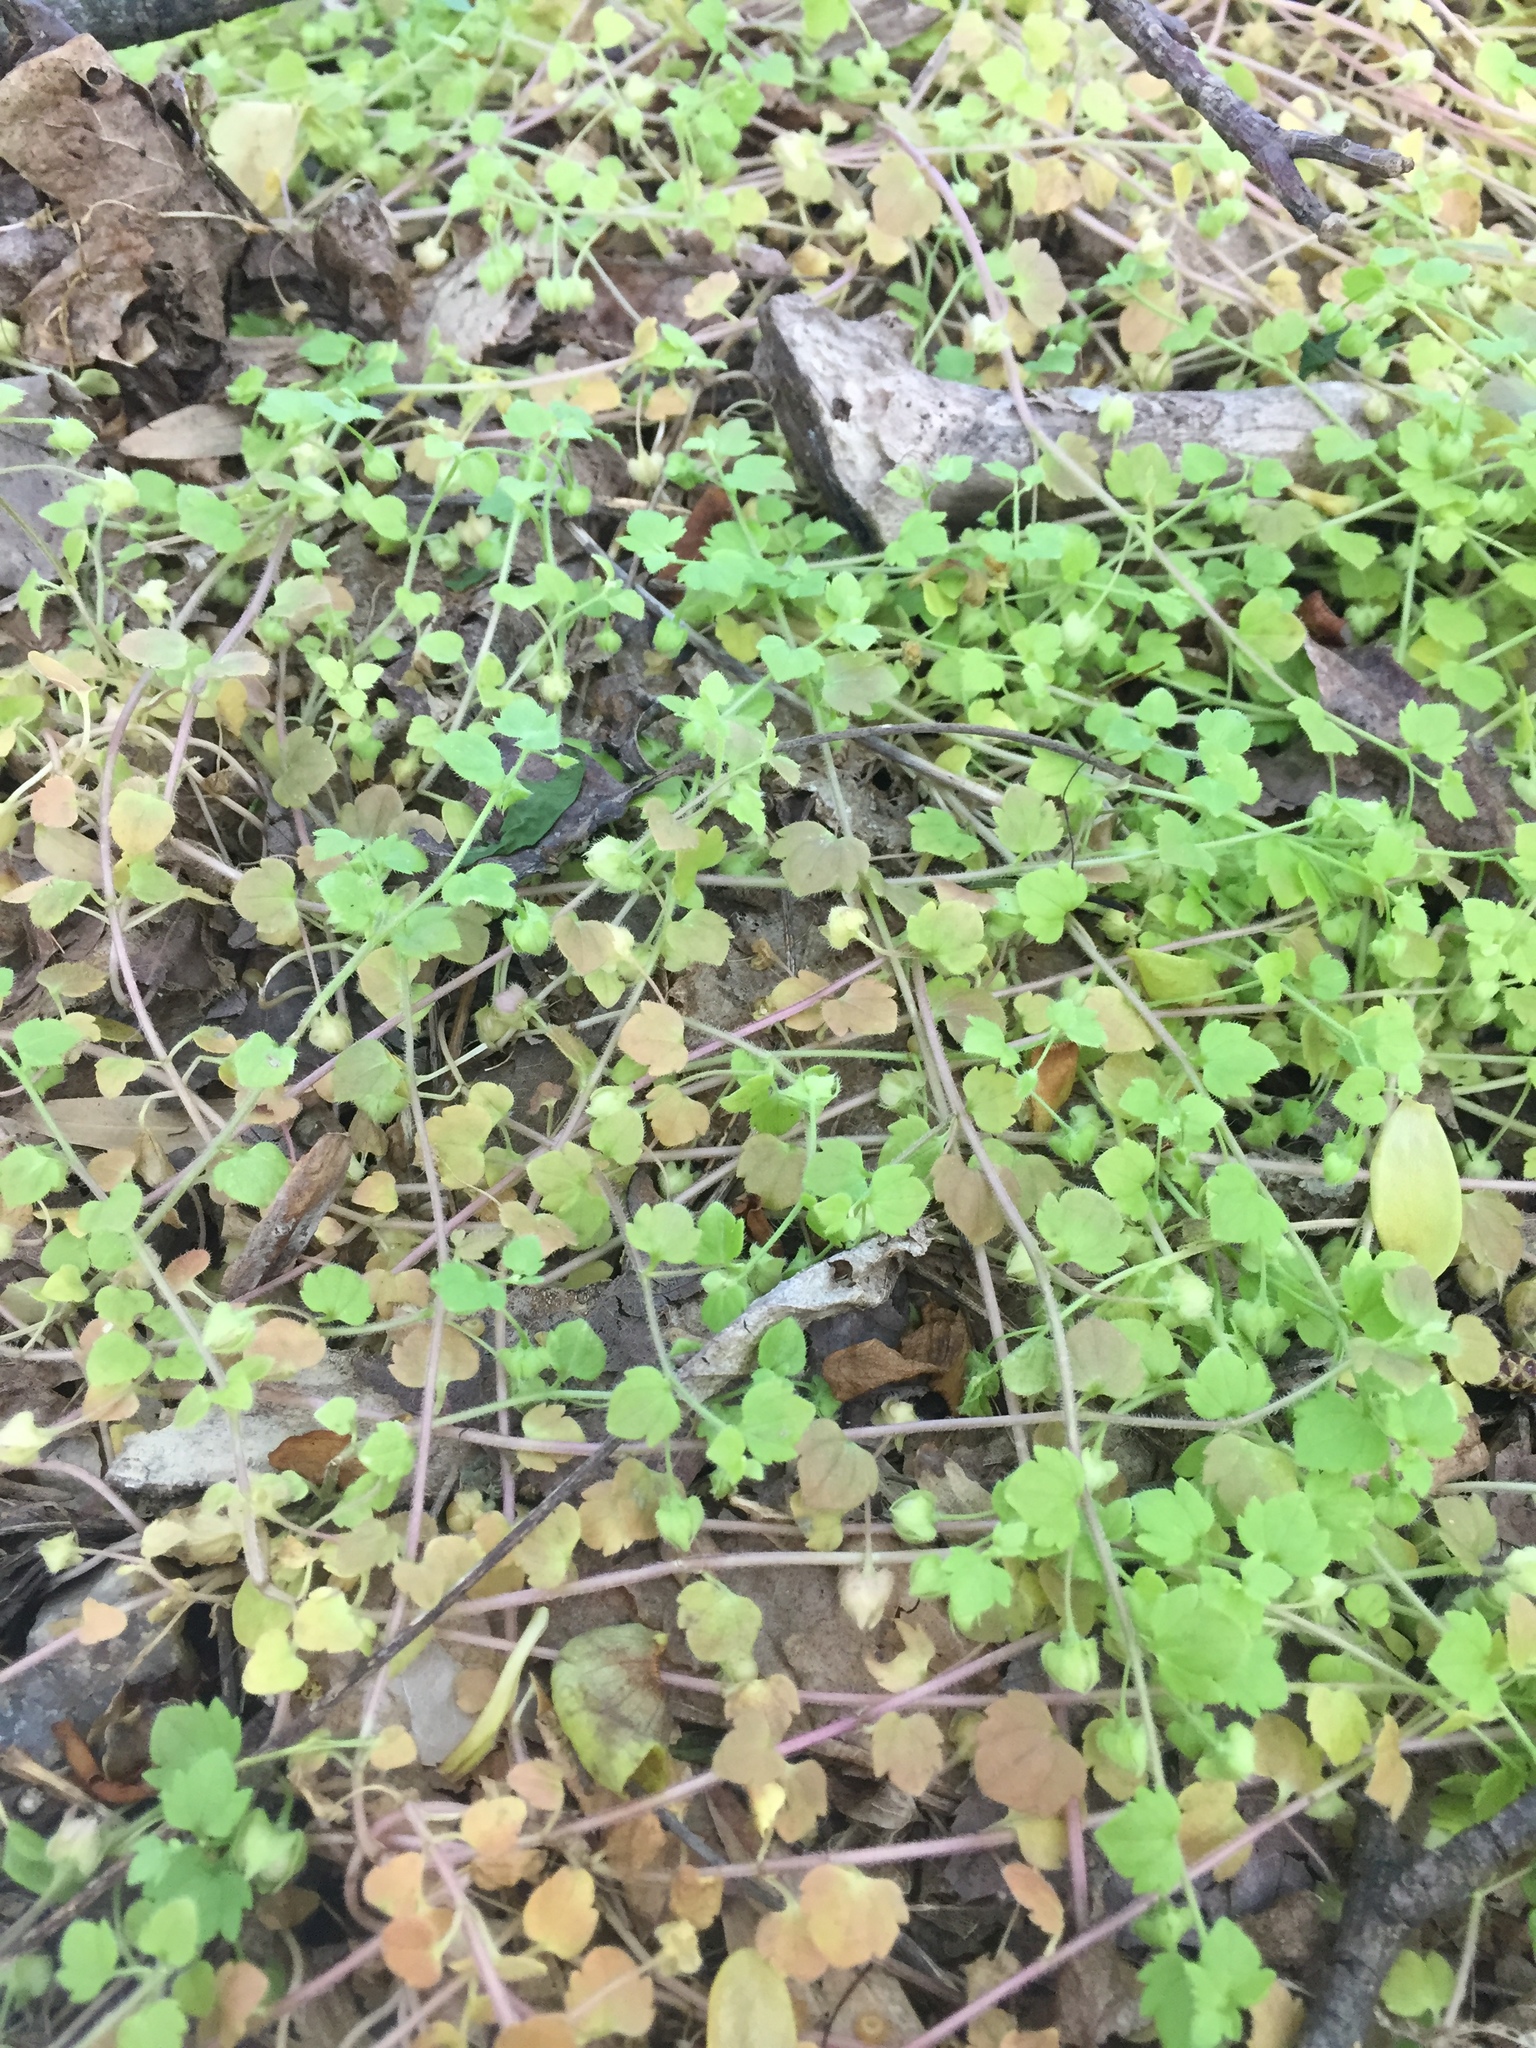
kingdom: Plantae
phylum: Tracheophyta
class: Magnoliopsida
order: Lamiales
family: Plantaginaceae
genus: Veronica
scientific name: Veronica hederifolia
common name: Ivy-leaved speedwell
